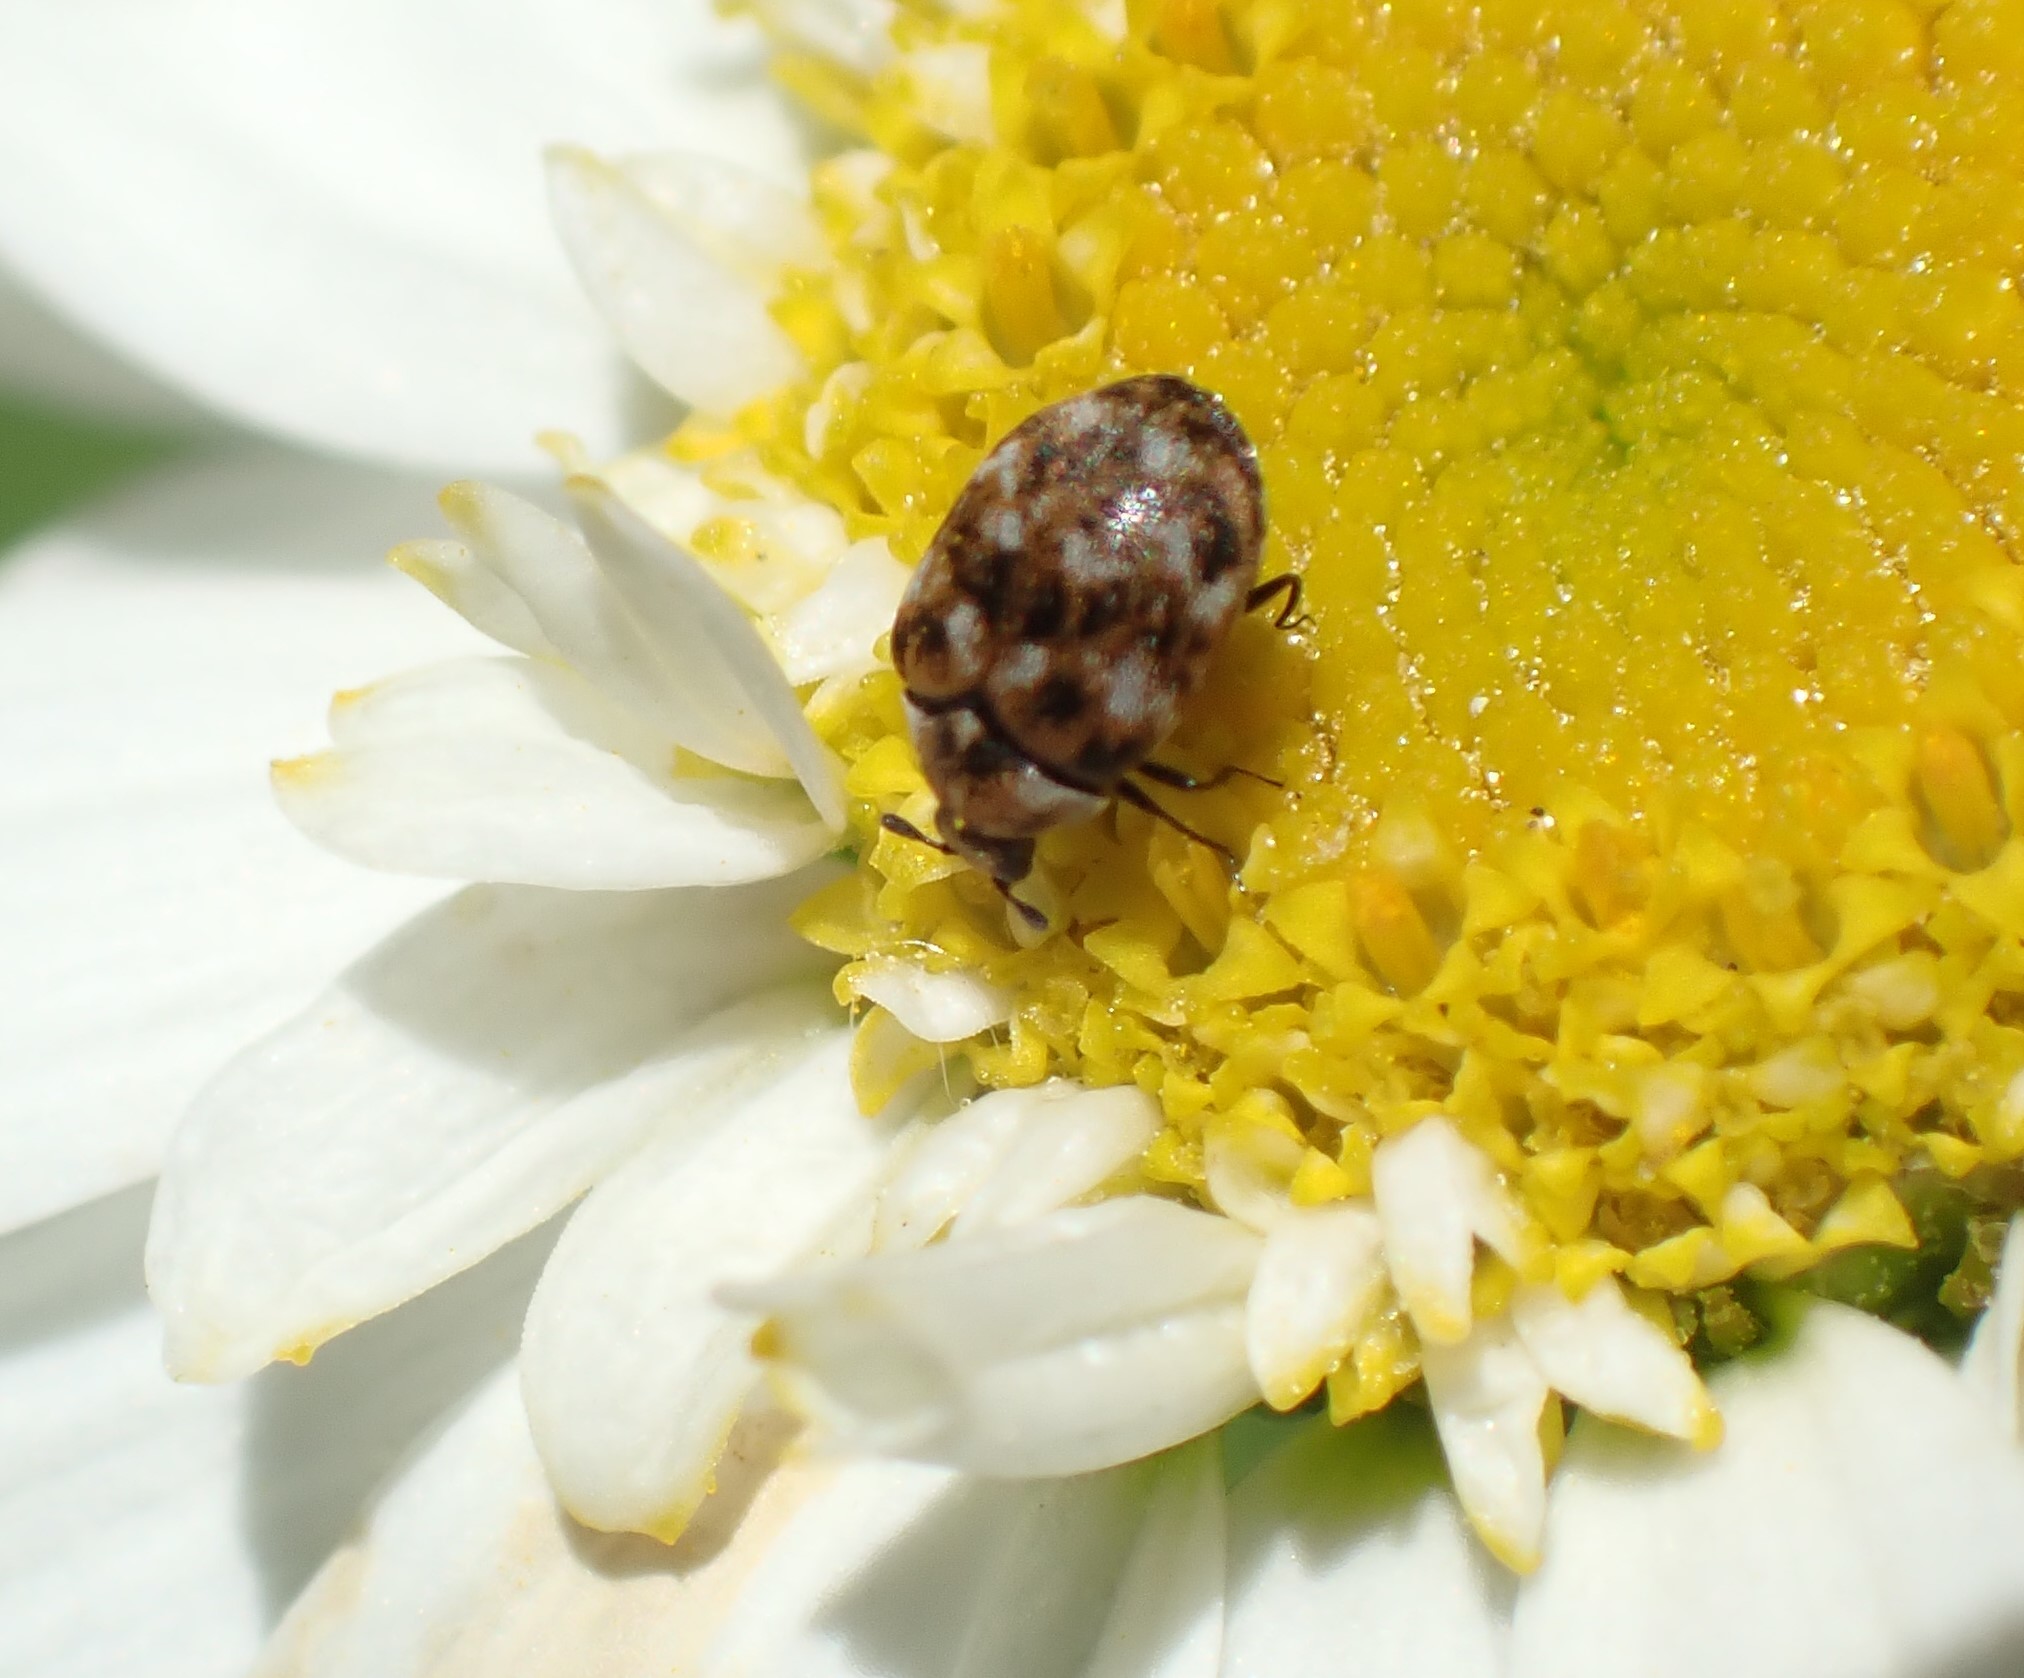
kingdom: Animalia
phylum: Arthropoda
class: Insecta
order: Coleoptera
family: Dermestidae
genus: Anthrenus
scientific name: Anthrenus verbasci
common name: Varied carpet beetle
